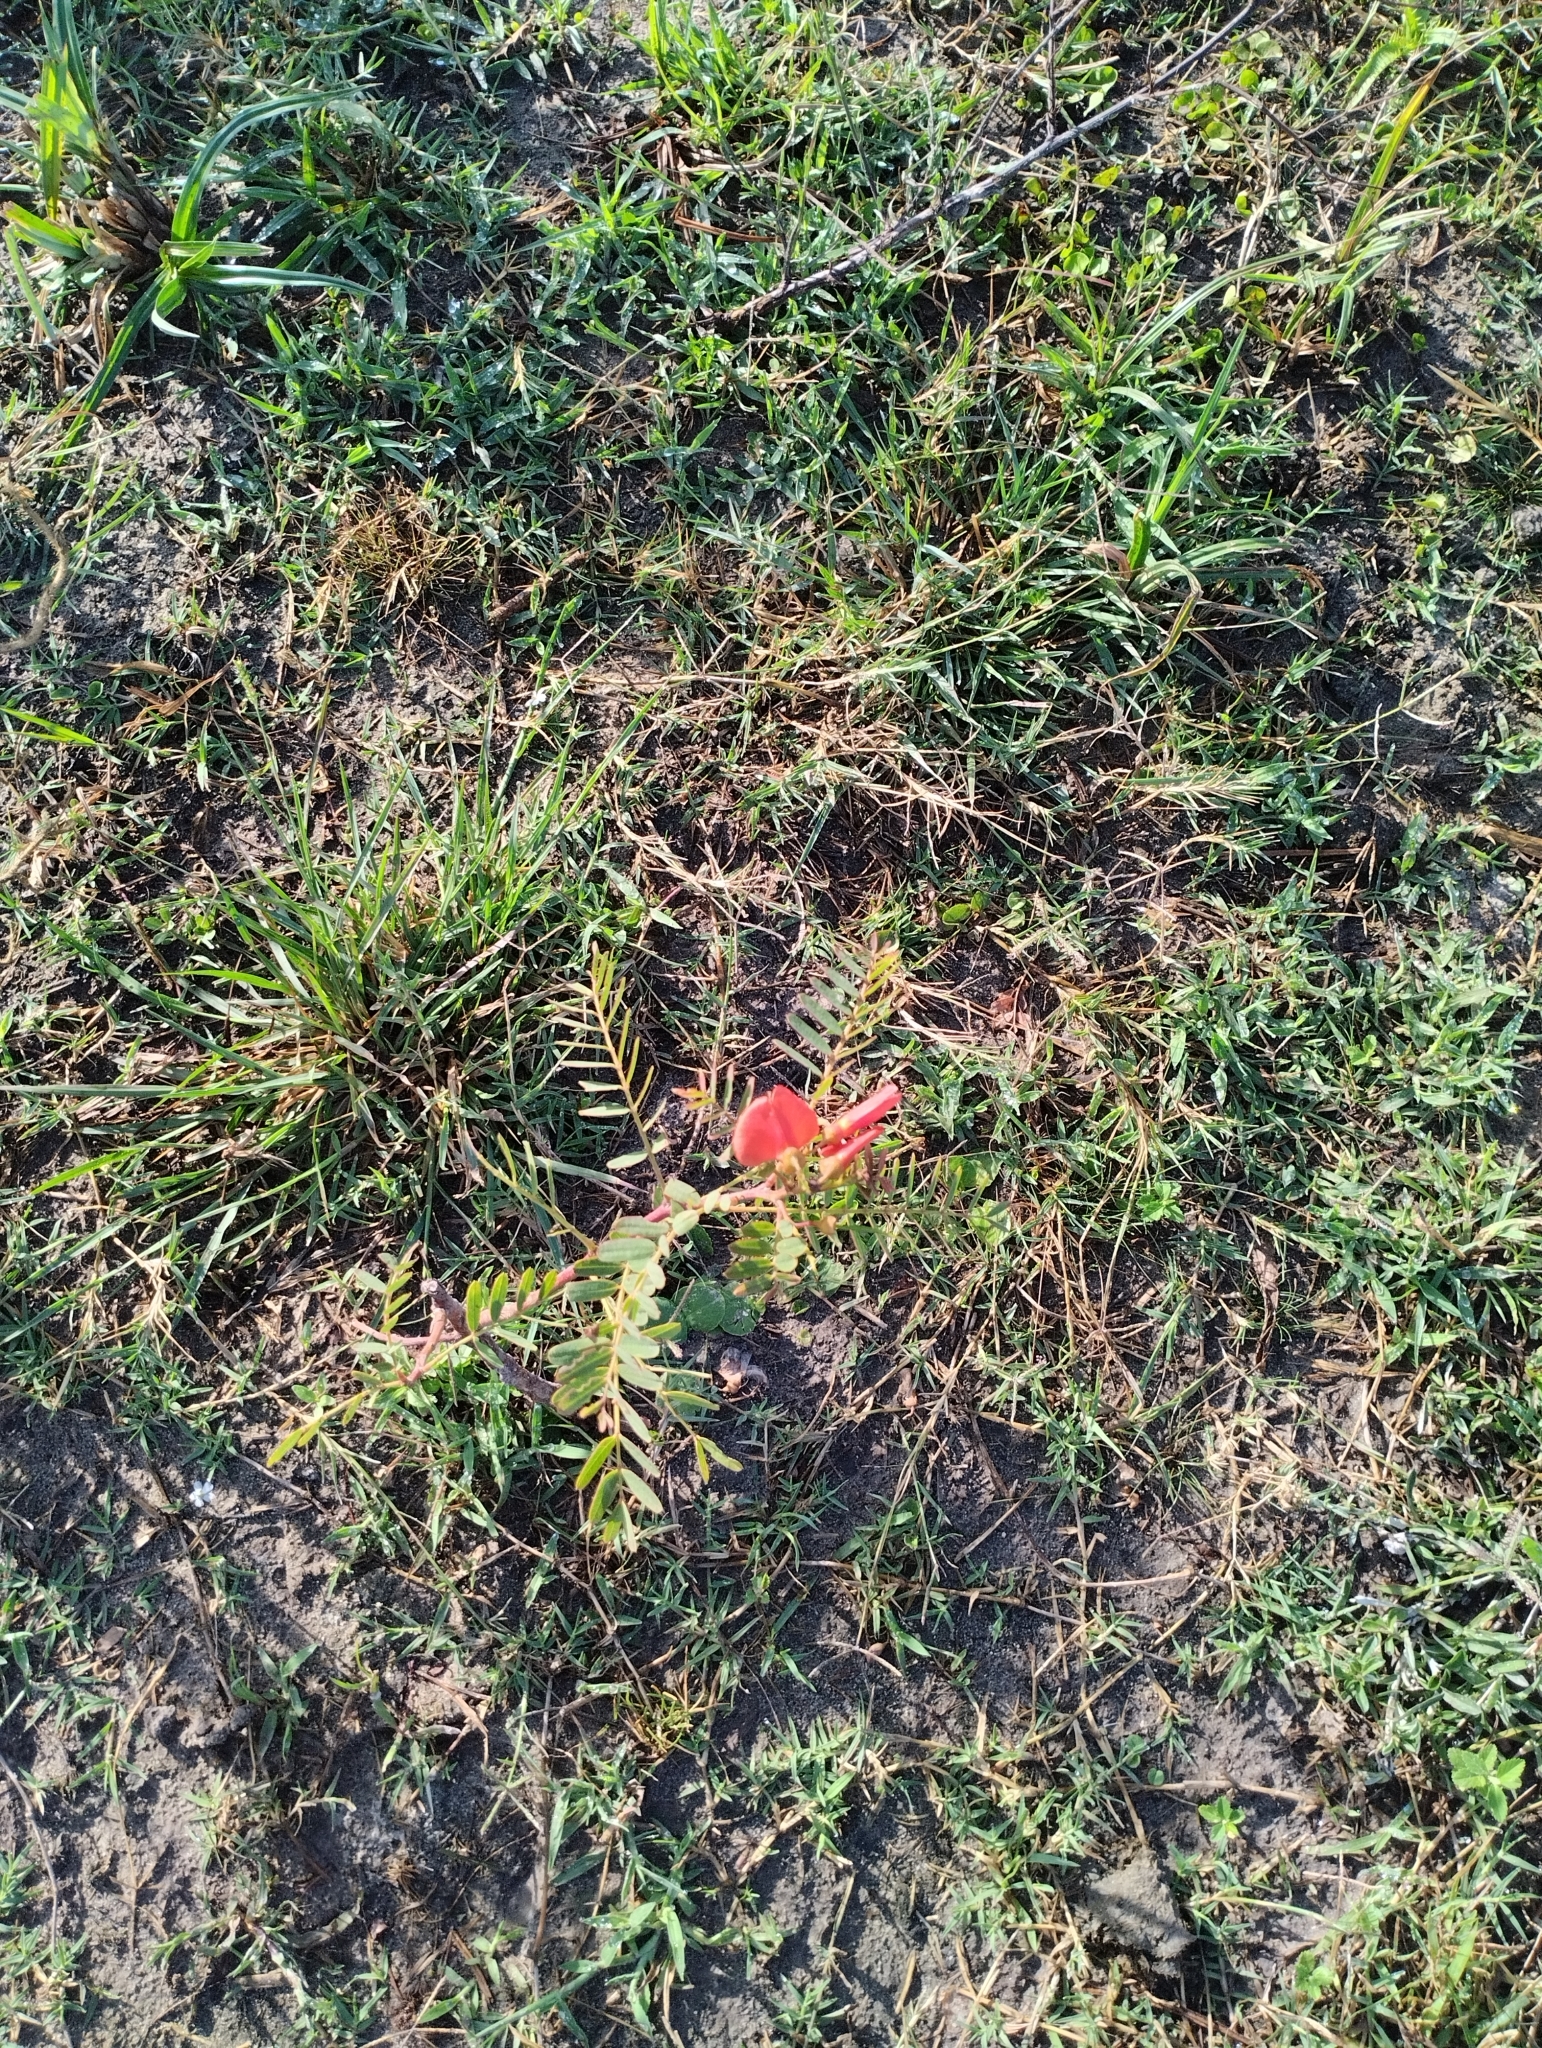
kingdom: Plantae
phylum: Tracheophyta
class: Magnoliopsida
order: Fabales
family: Fabaceae
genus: Sesbania
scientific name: Sesbania punicea
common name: Rattlebox
